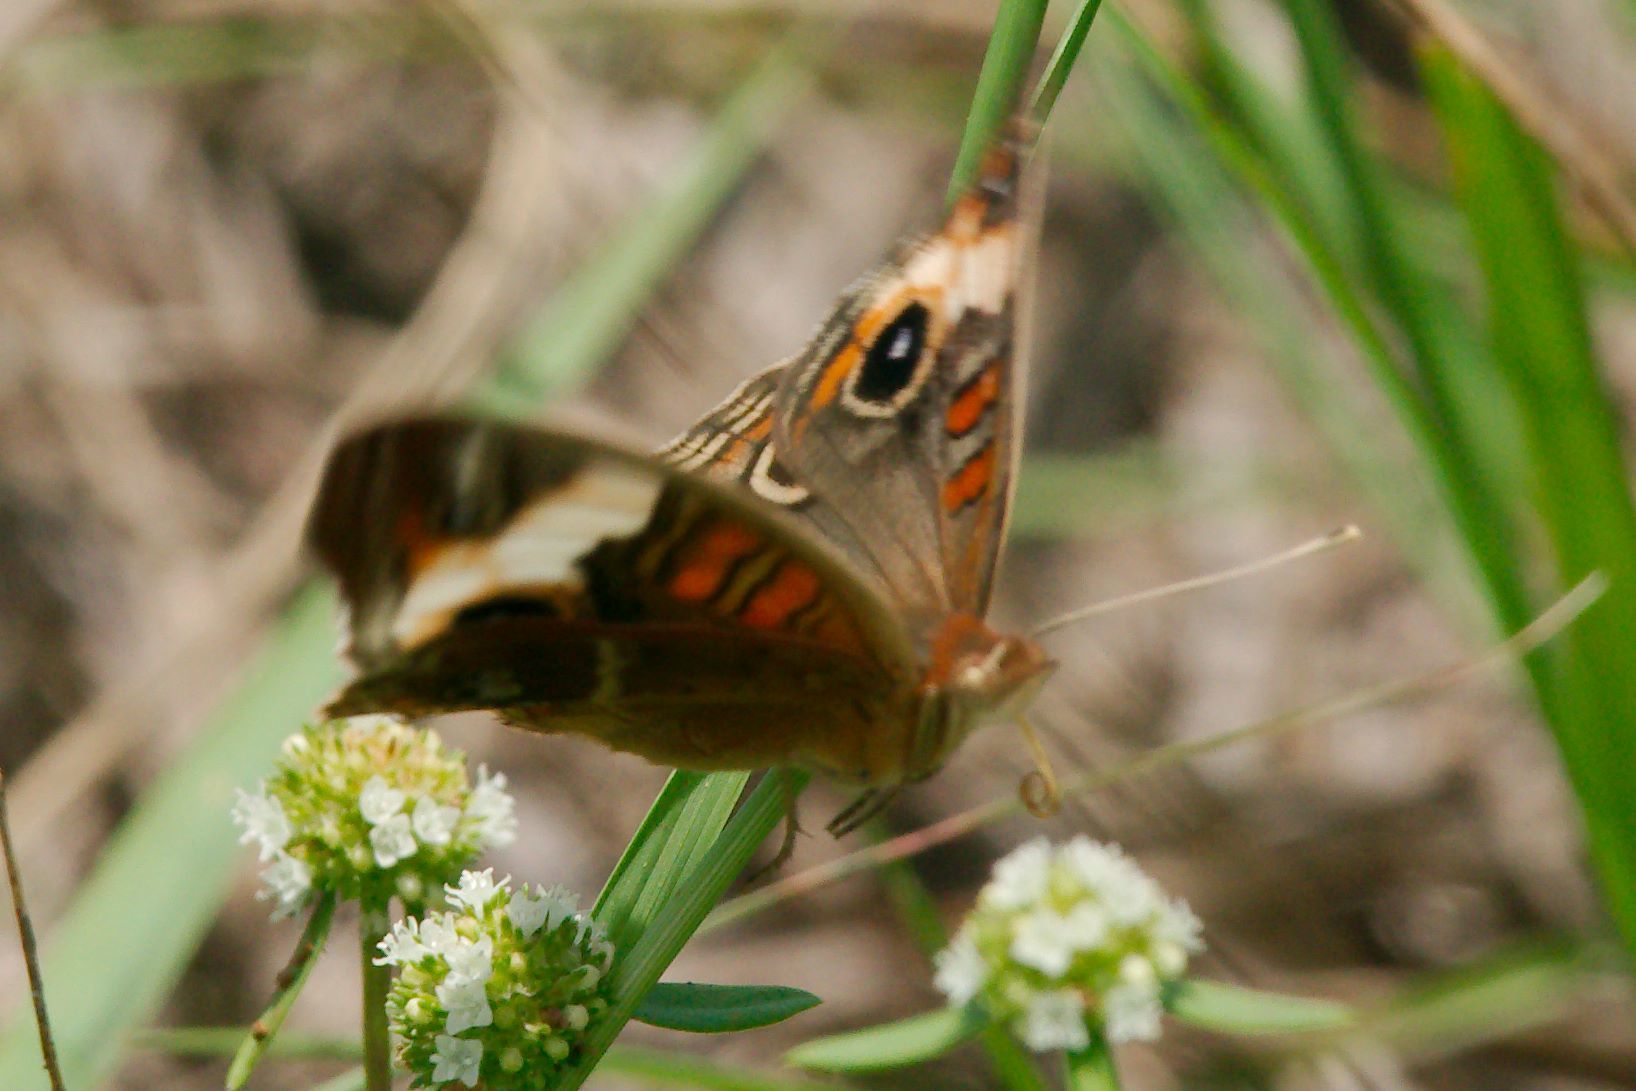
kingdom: Animalia
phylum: Arthropoda
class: Insecta
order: Lepidoptera
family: Nymphalidae
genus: Junonia
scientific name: Junonia lavinia
